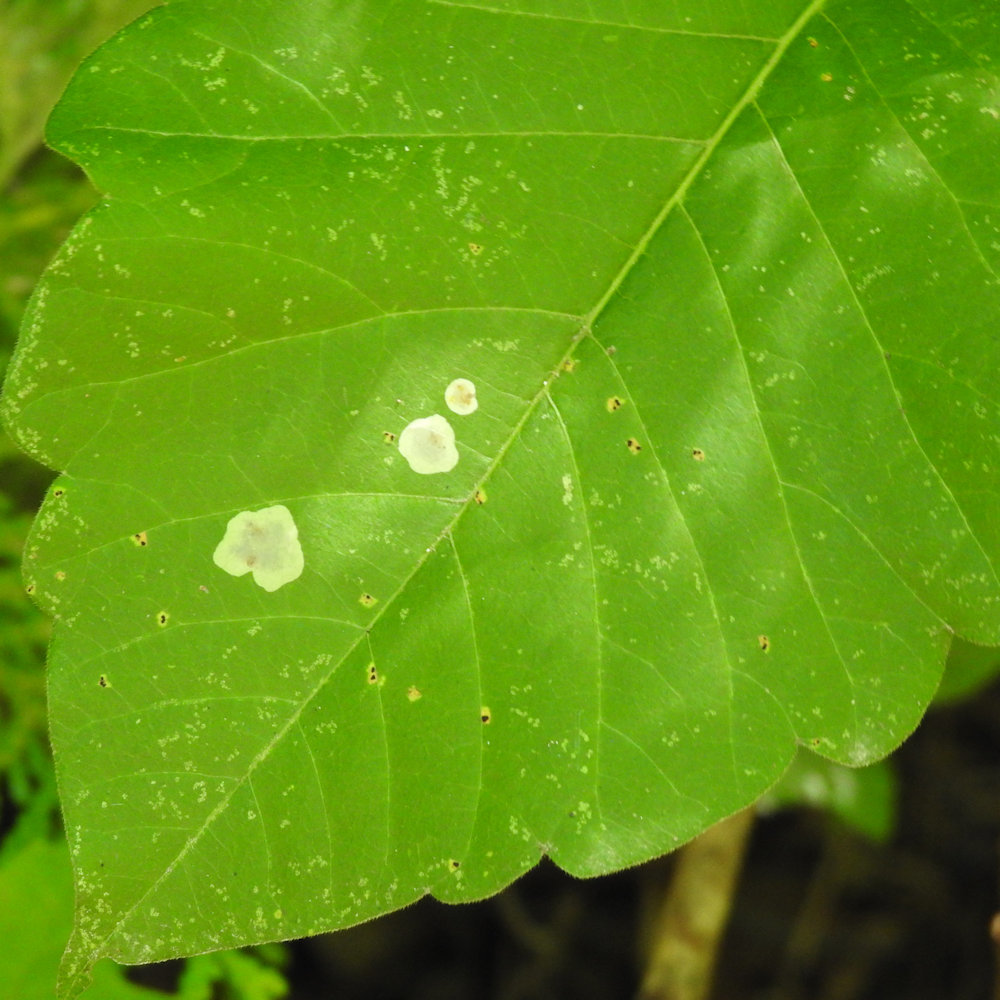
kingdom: Animalia
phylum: Arthropoda
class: Insecta
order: Lepidoptera
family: Gracillariidae
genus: Cameraria
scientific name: Cameraria guttifinitella
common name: Poison ivy leaf-miner moth
